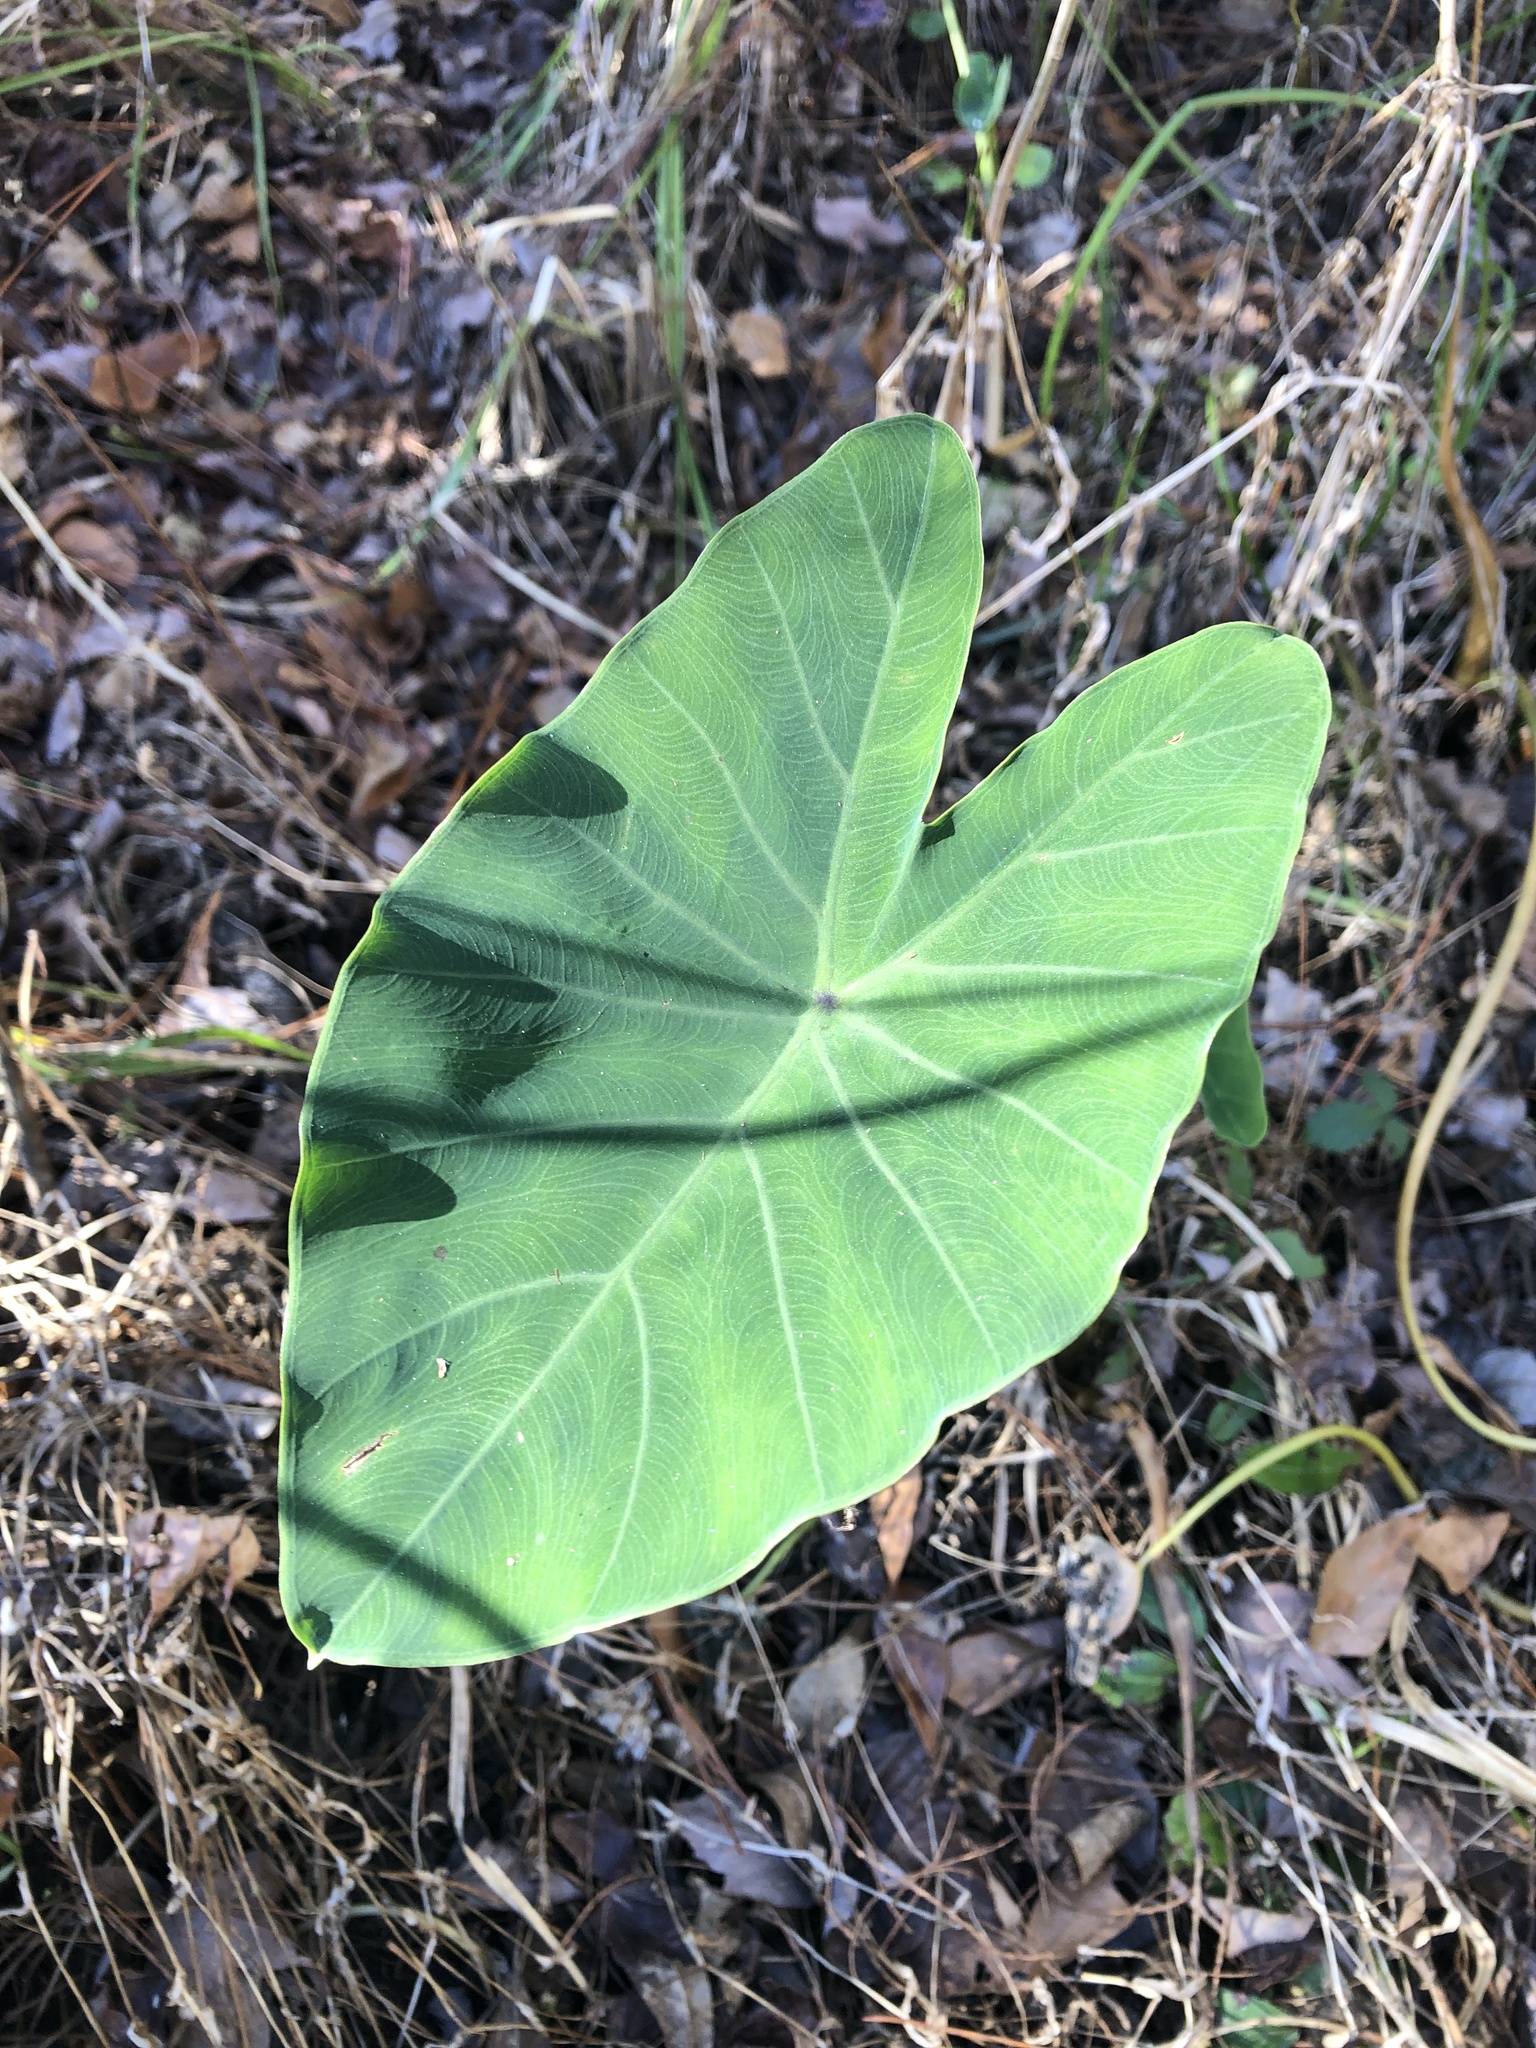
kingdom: Plantae
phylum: Tracheophyta
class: Liliopsida
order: Alismatales
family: Araceae
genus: Colocasia
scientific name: Colocasia esculenta
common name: Taro
